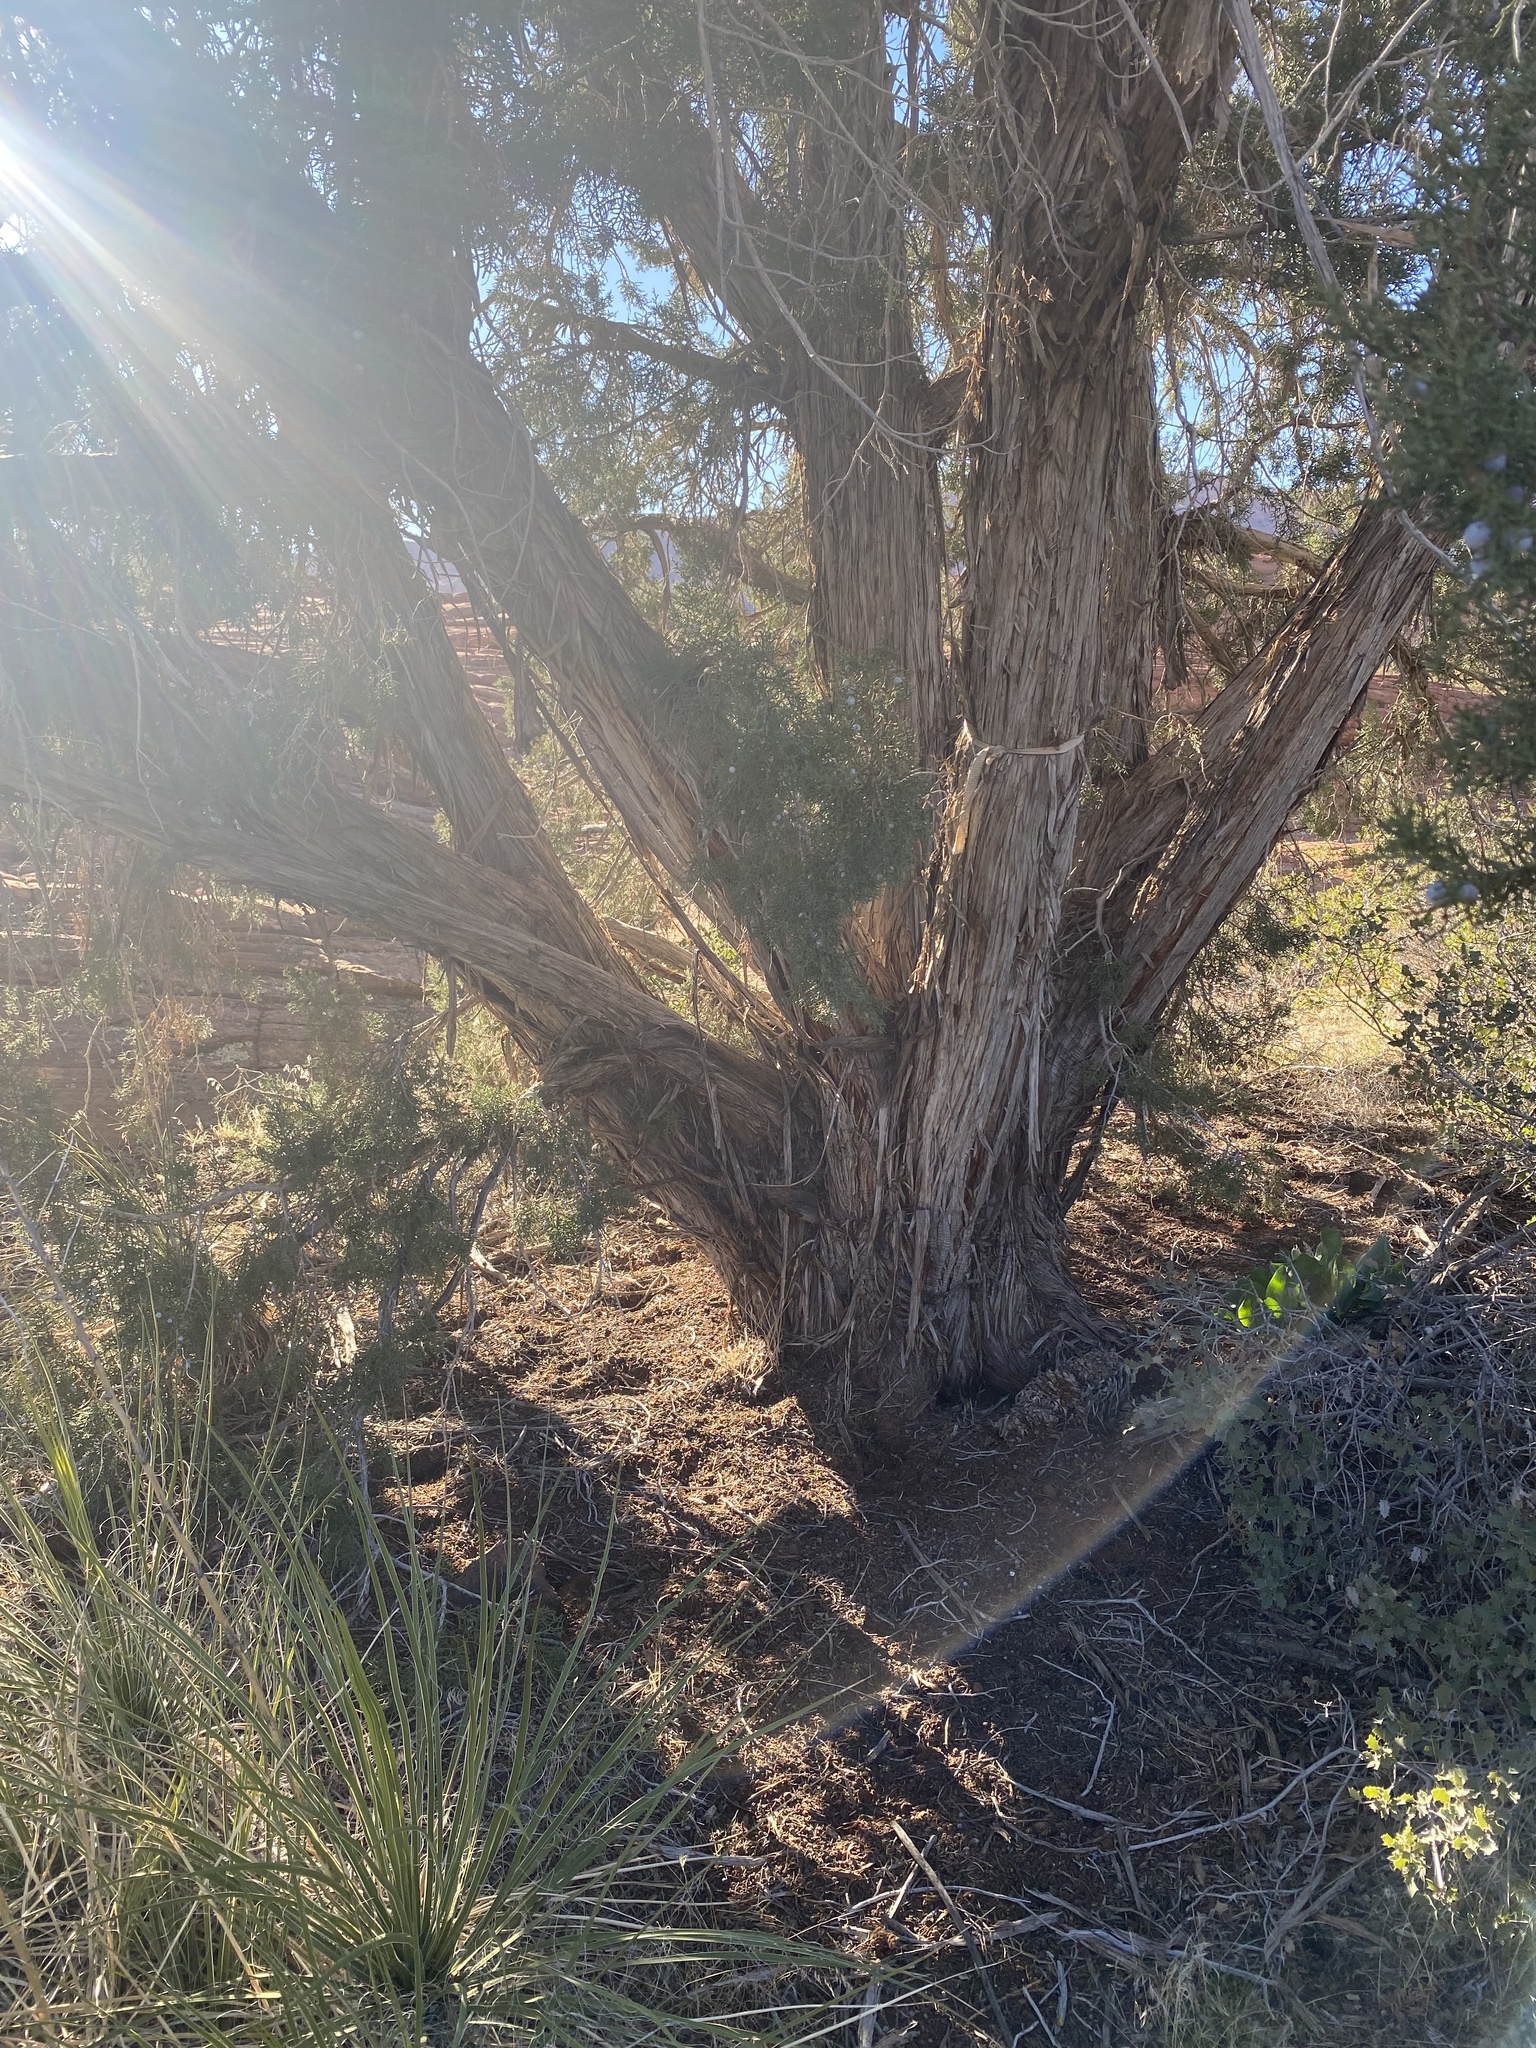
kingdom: Plantae
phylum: Tracheophyta
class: Pinopsida
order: Pinales
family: Cupressaceae
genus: Juniperus
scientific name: Juniperus osteosperma
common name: Utah juniper
